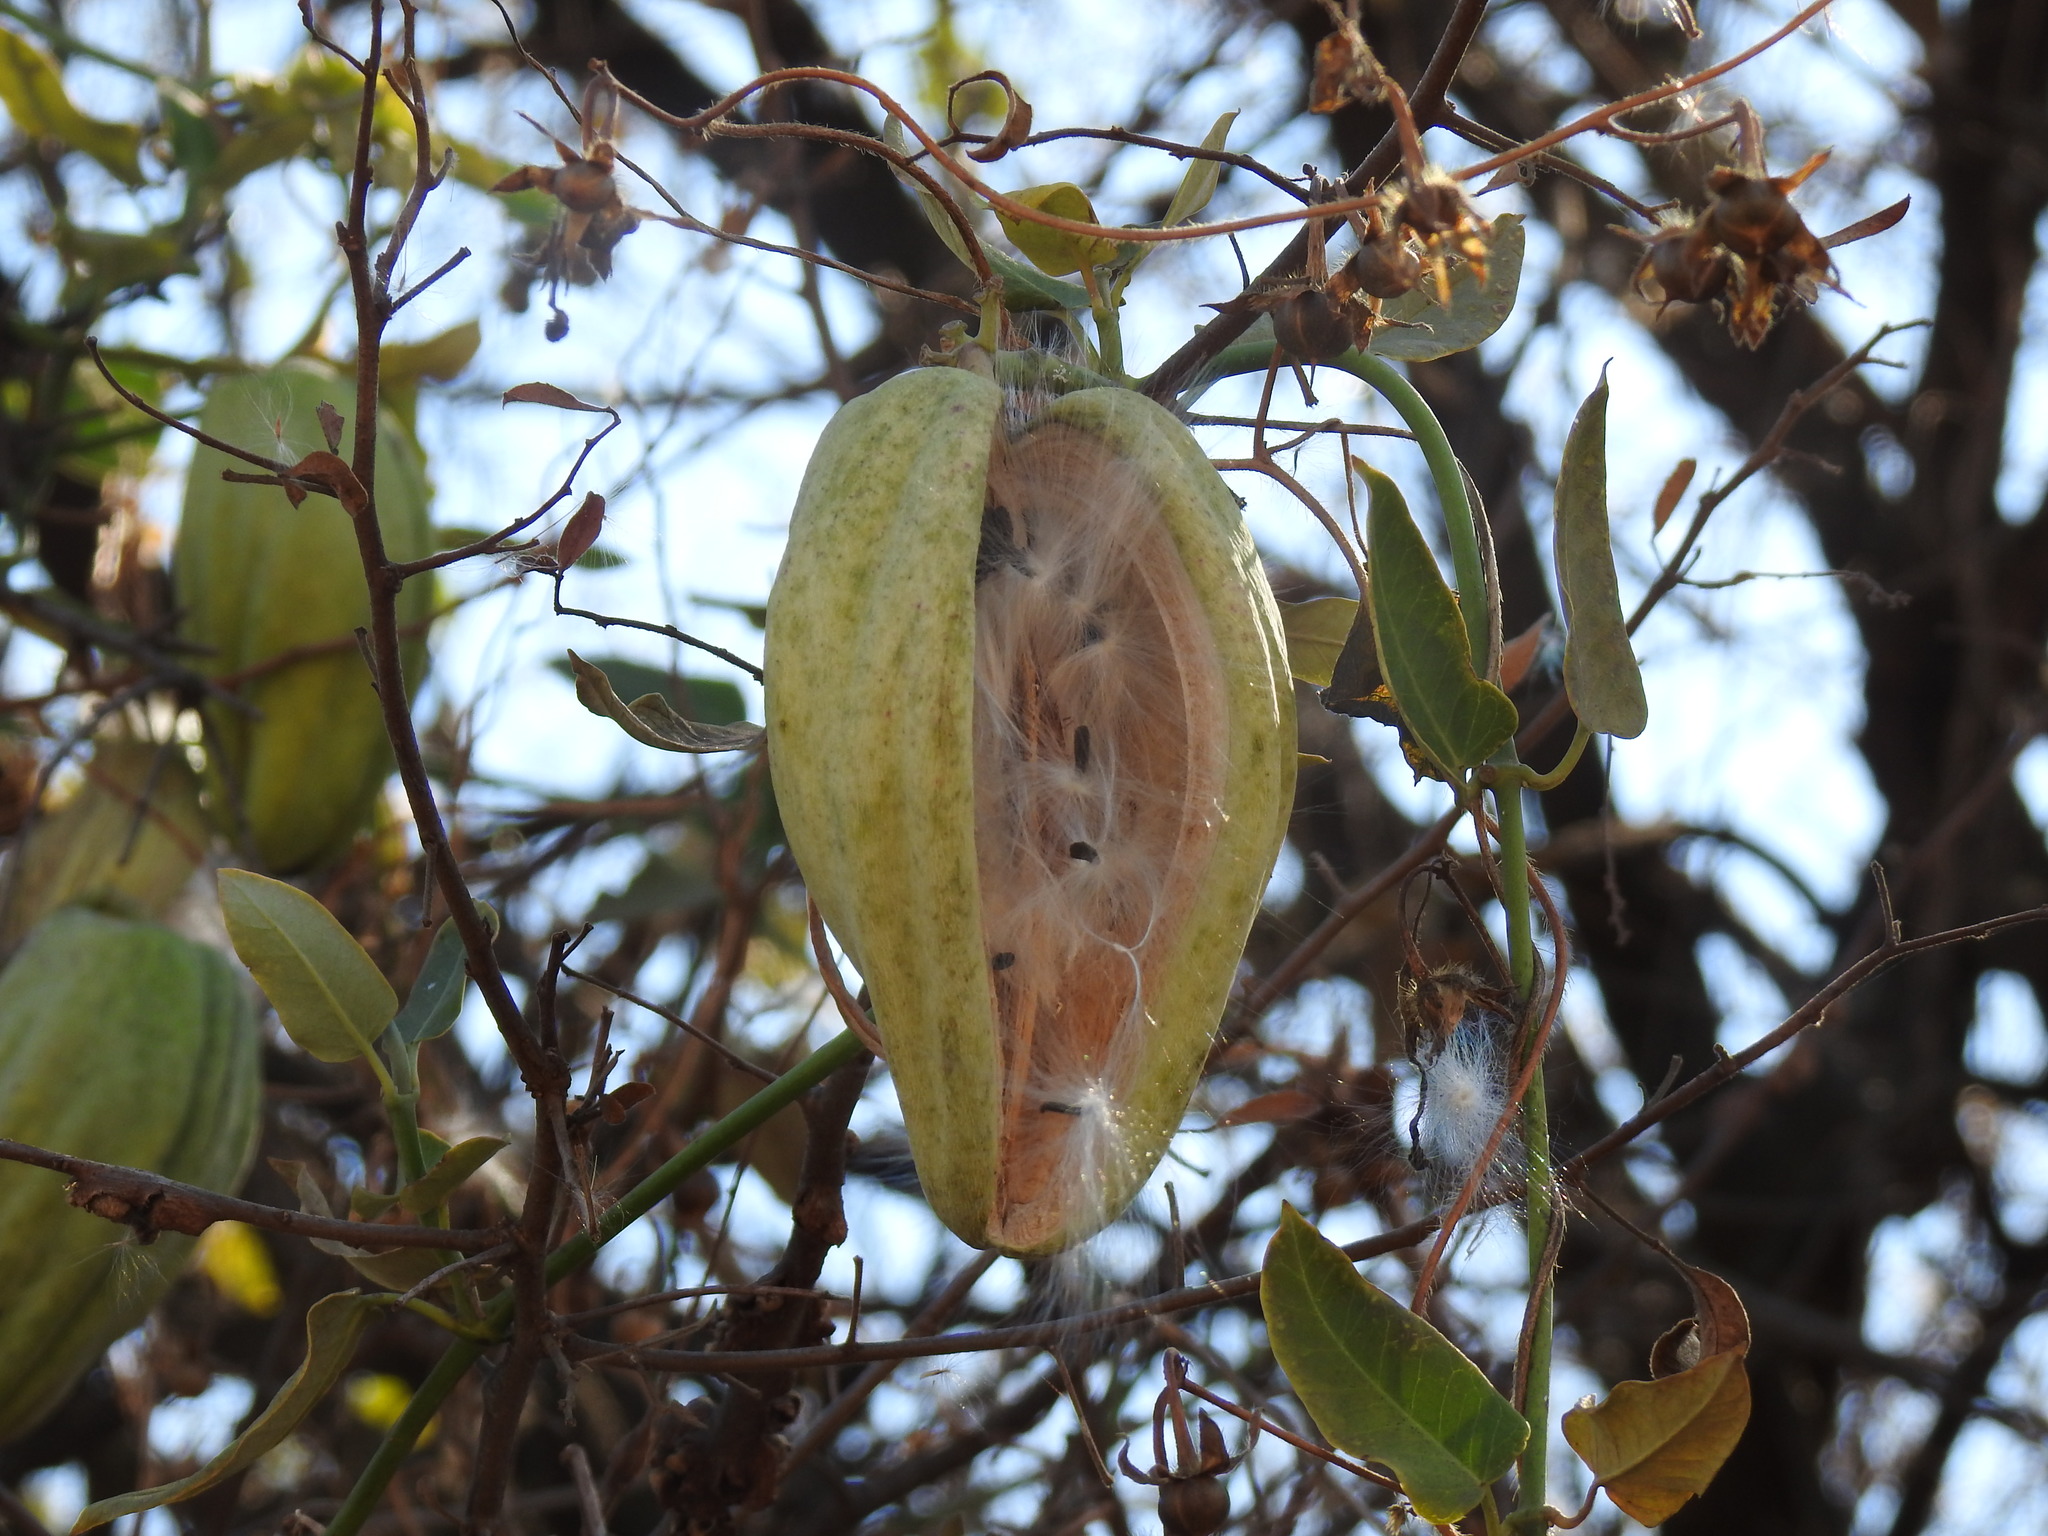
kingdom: Plantae
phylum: Tracheophyta
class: Magnoliopsida
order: Gentianales
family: Apocynaceae
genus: Araujia
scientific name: Araujia sericifera
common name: White bladderflower
